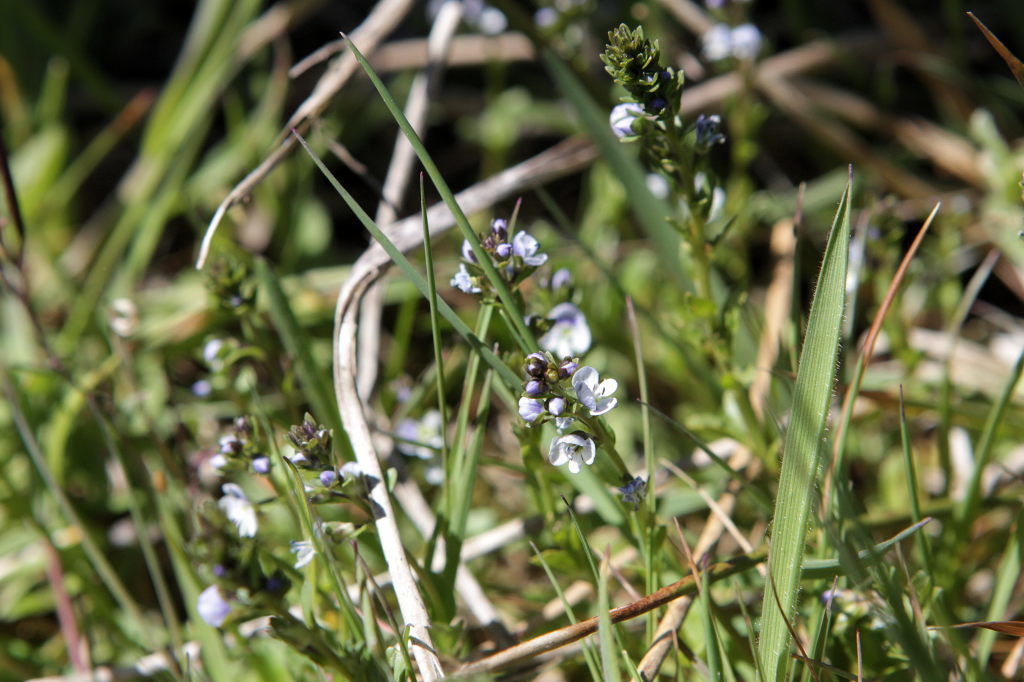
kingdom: Plantae
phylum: Tracheophyta
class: Magnoliopsida
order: Lamiales
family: Plantaginaceae
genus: Veronica
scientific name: Veronica serpyllifolia
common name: Thyme-leaved speedwell
